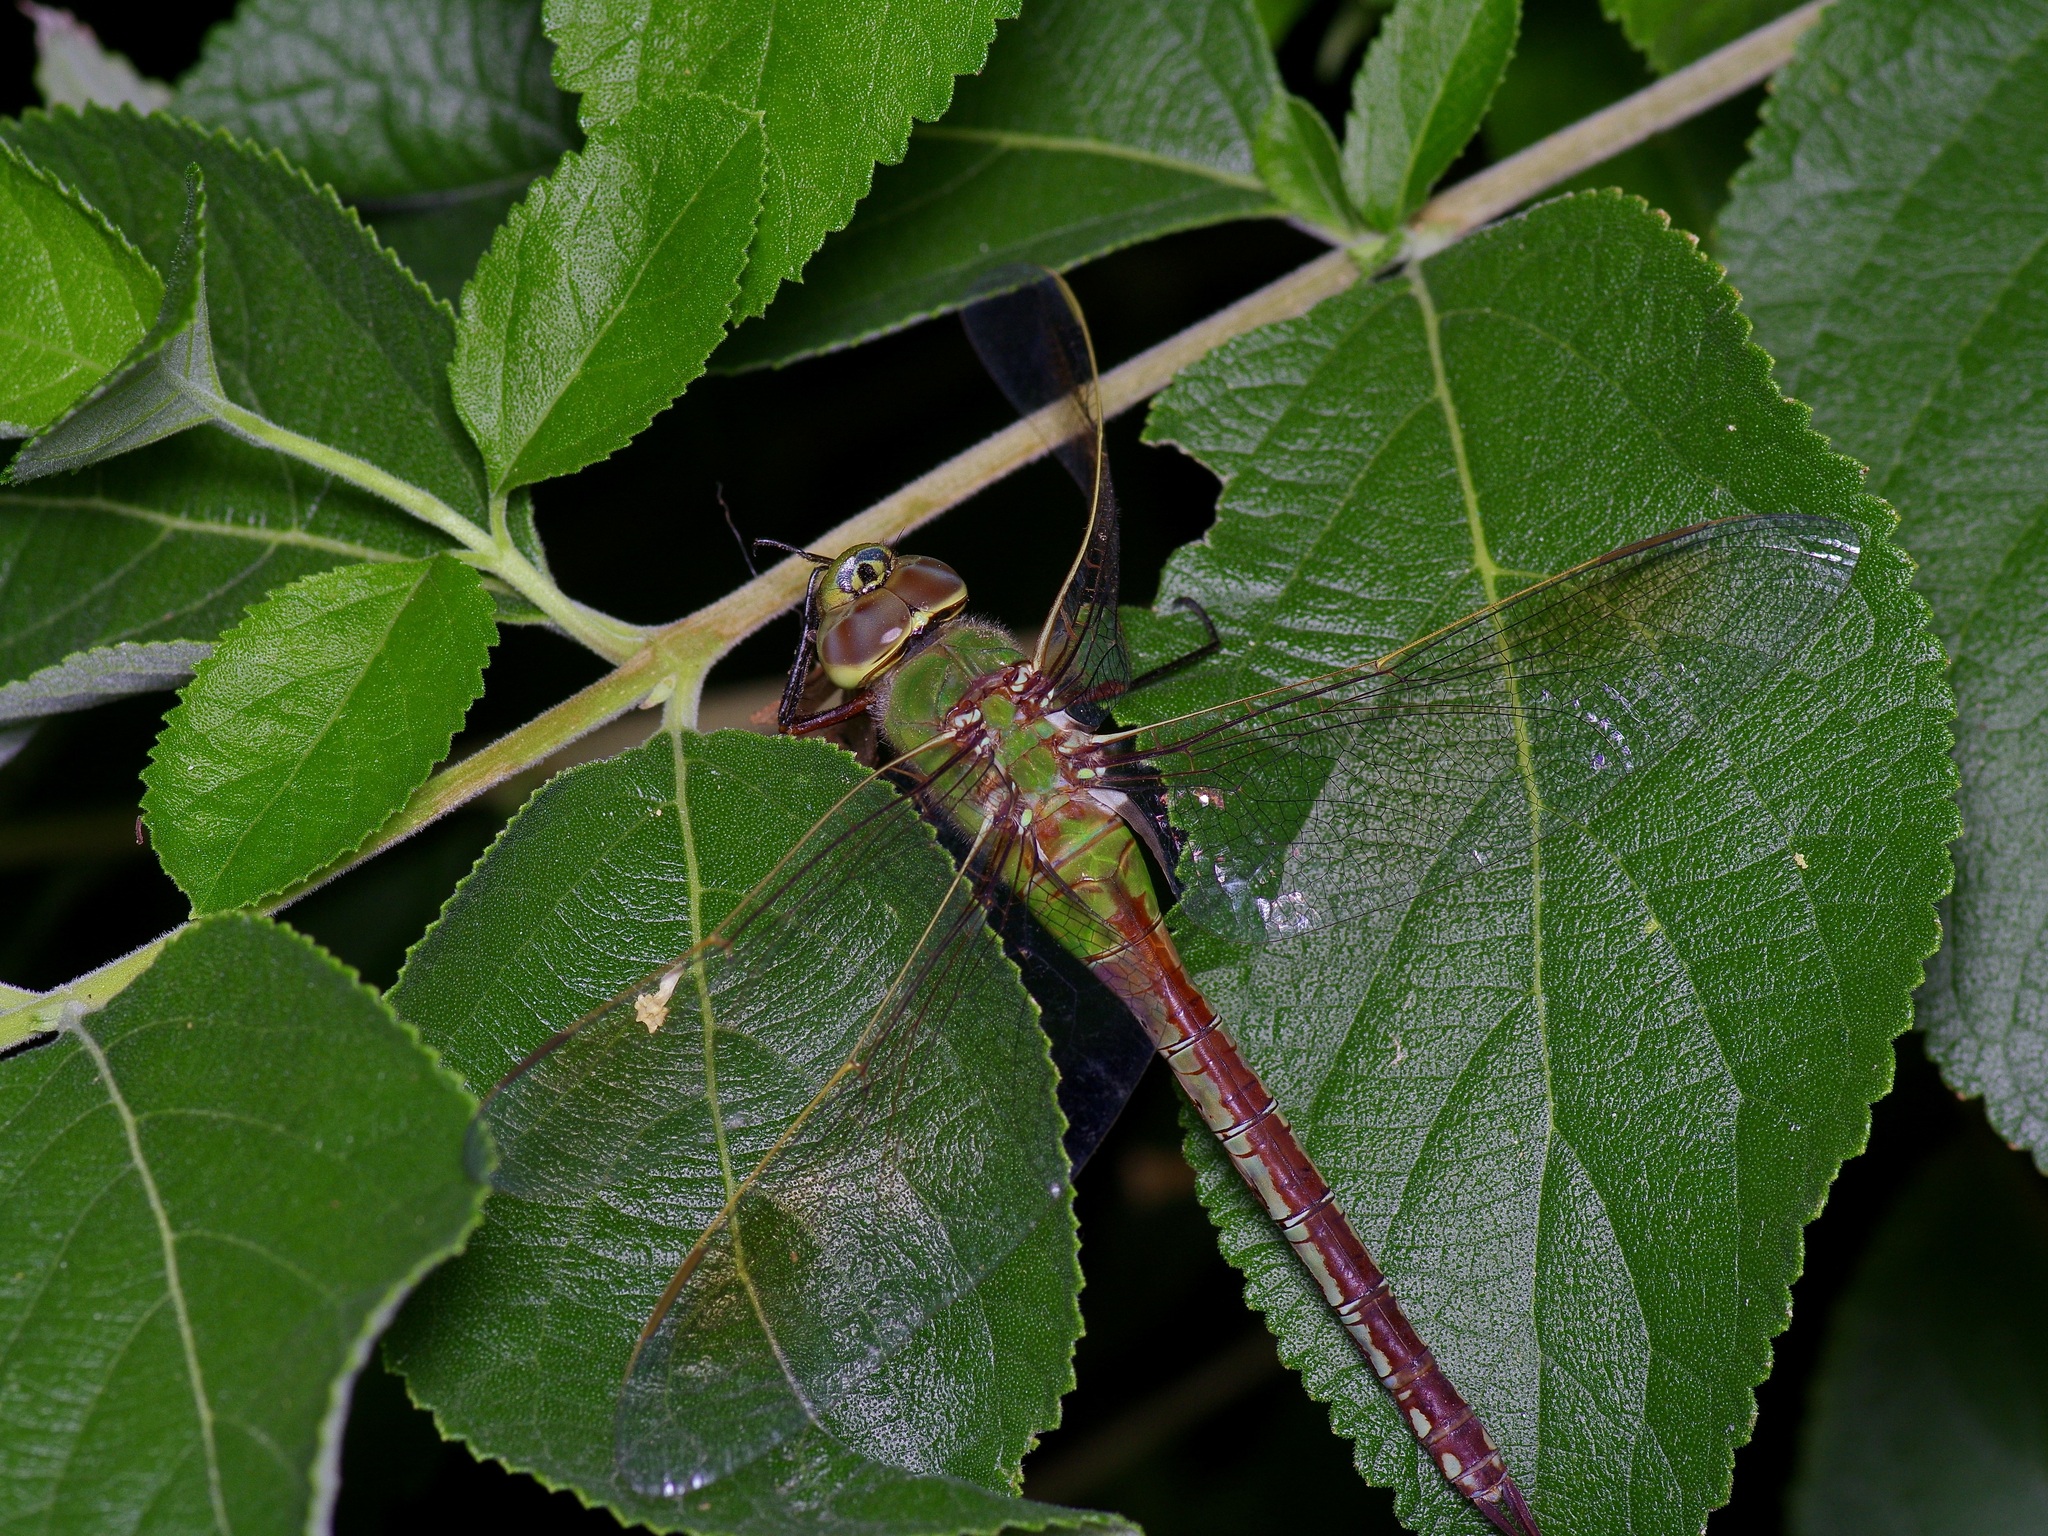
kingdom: Animalia
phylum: Arthropoda
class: Insecta
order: Odonata
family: Aeshnidae
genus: Anax
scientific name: Anax junius
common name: Common green darner
